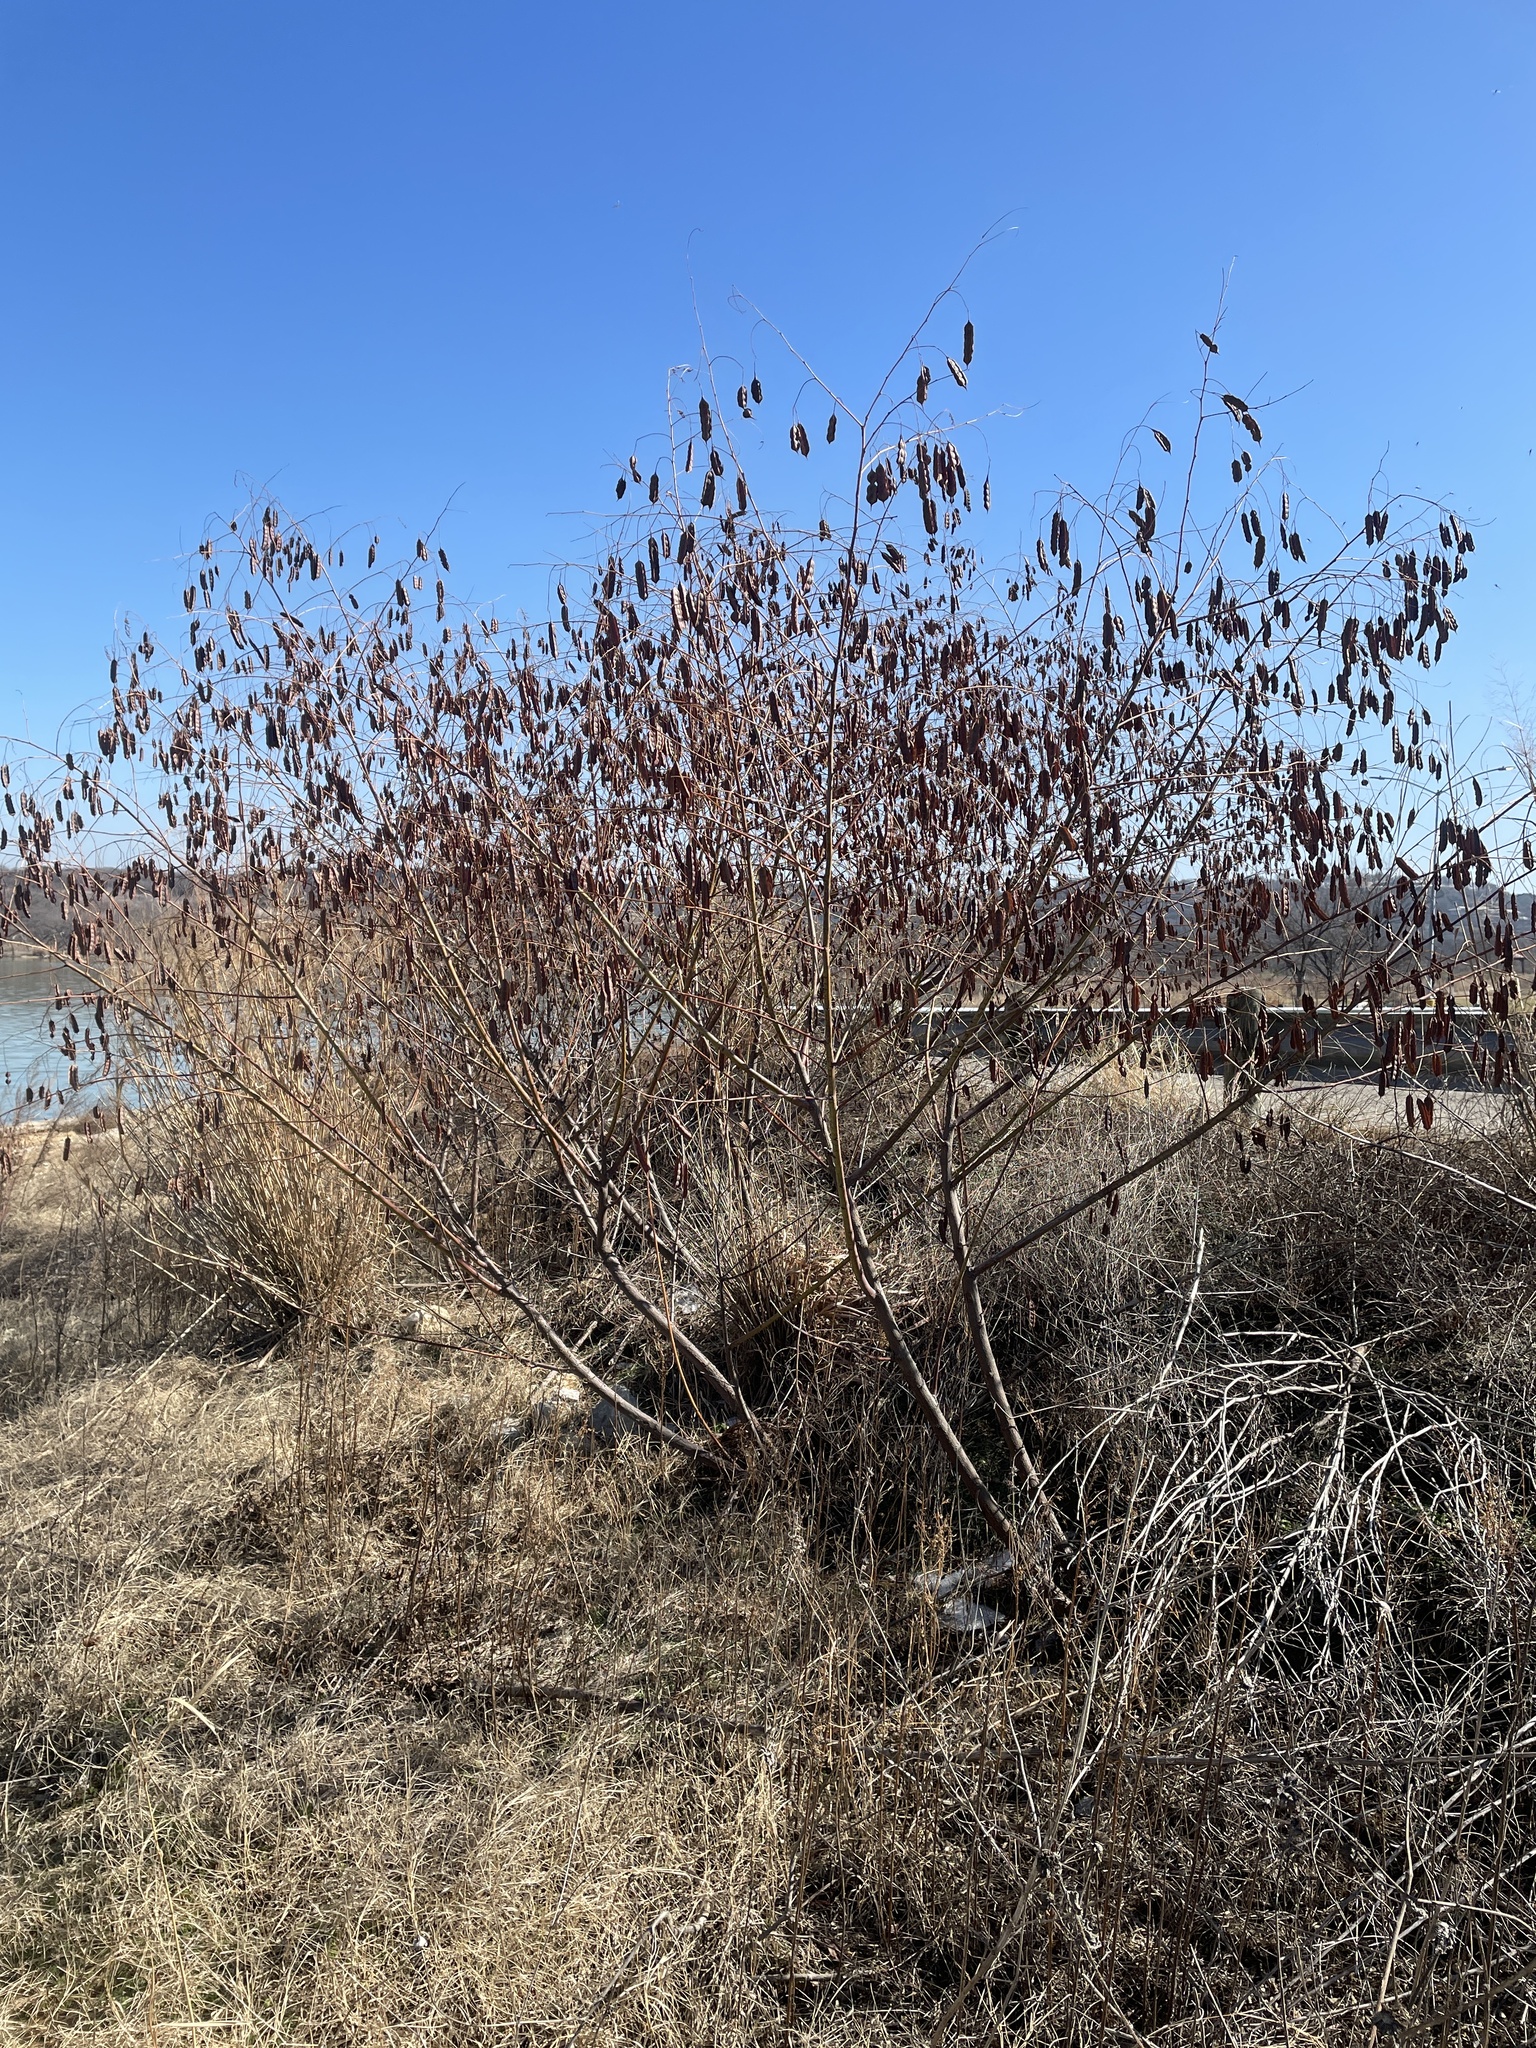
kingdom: Plantae
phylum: Tracheophyta
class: Magnoliopsida
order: Fabales
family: Fabaceae
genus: Sesbania
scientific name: Sesbania drummondii
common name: Poison-bean
